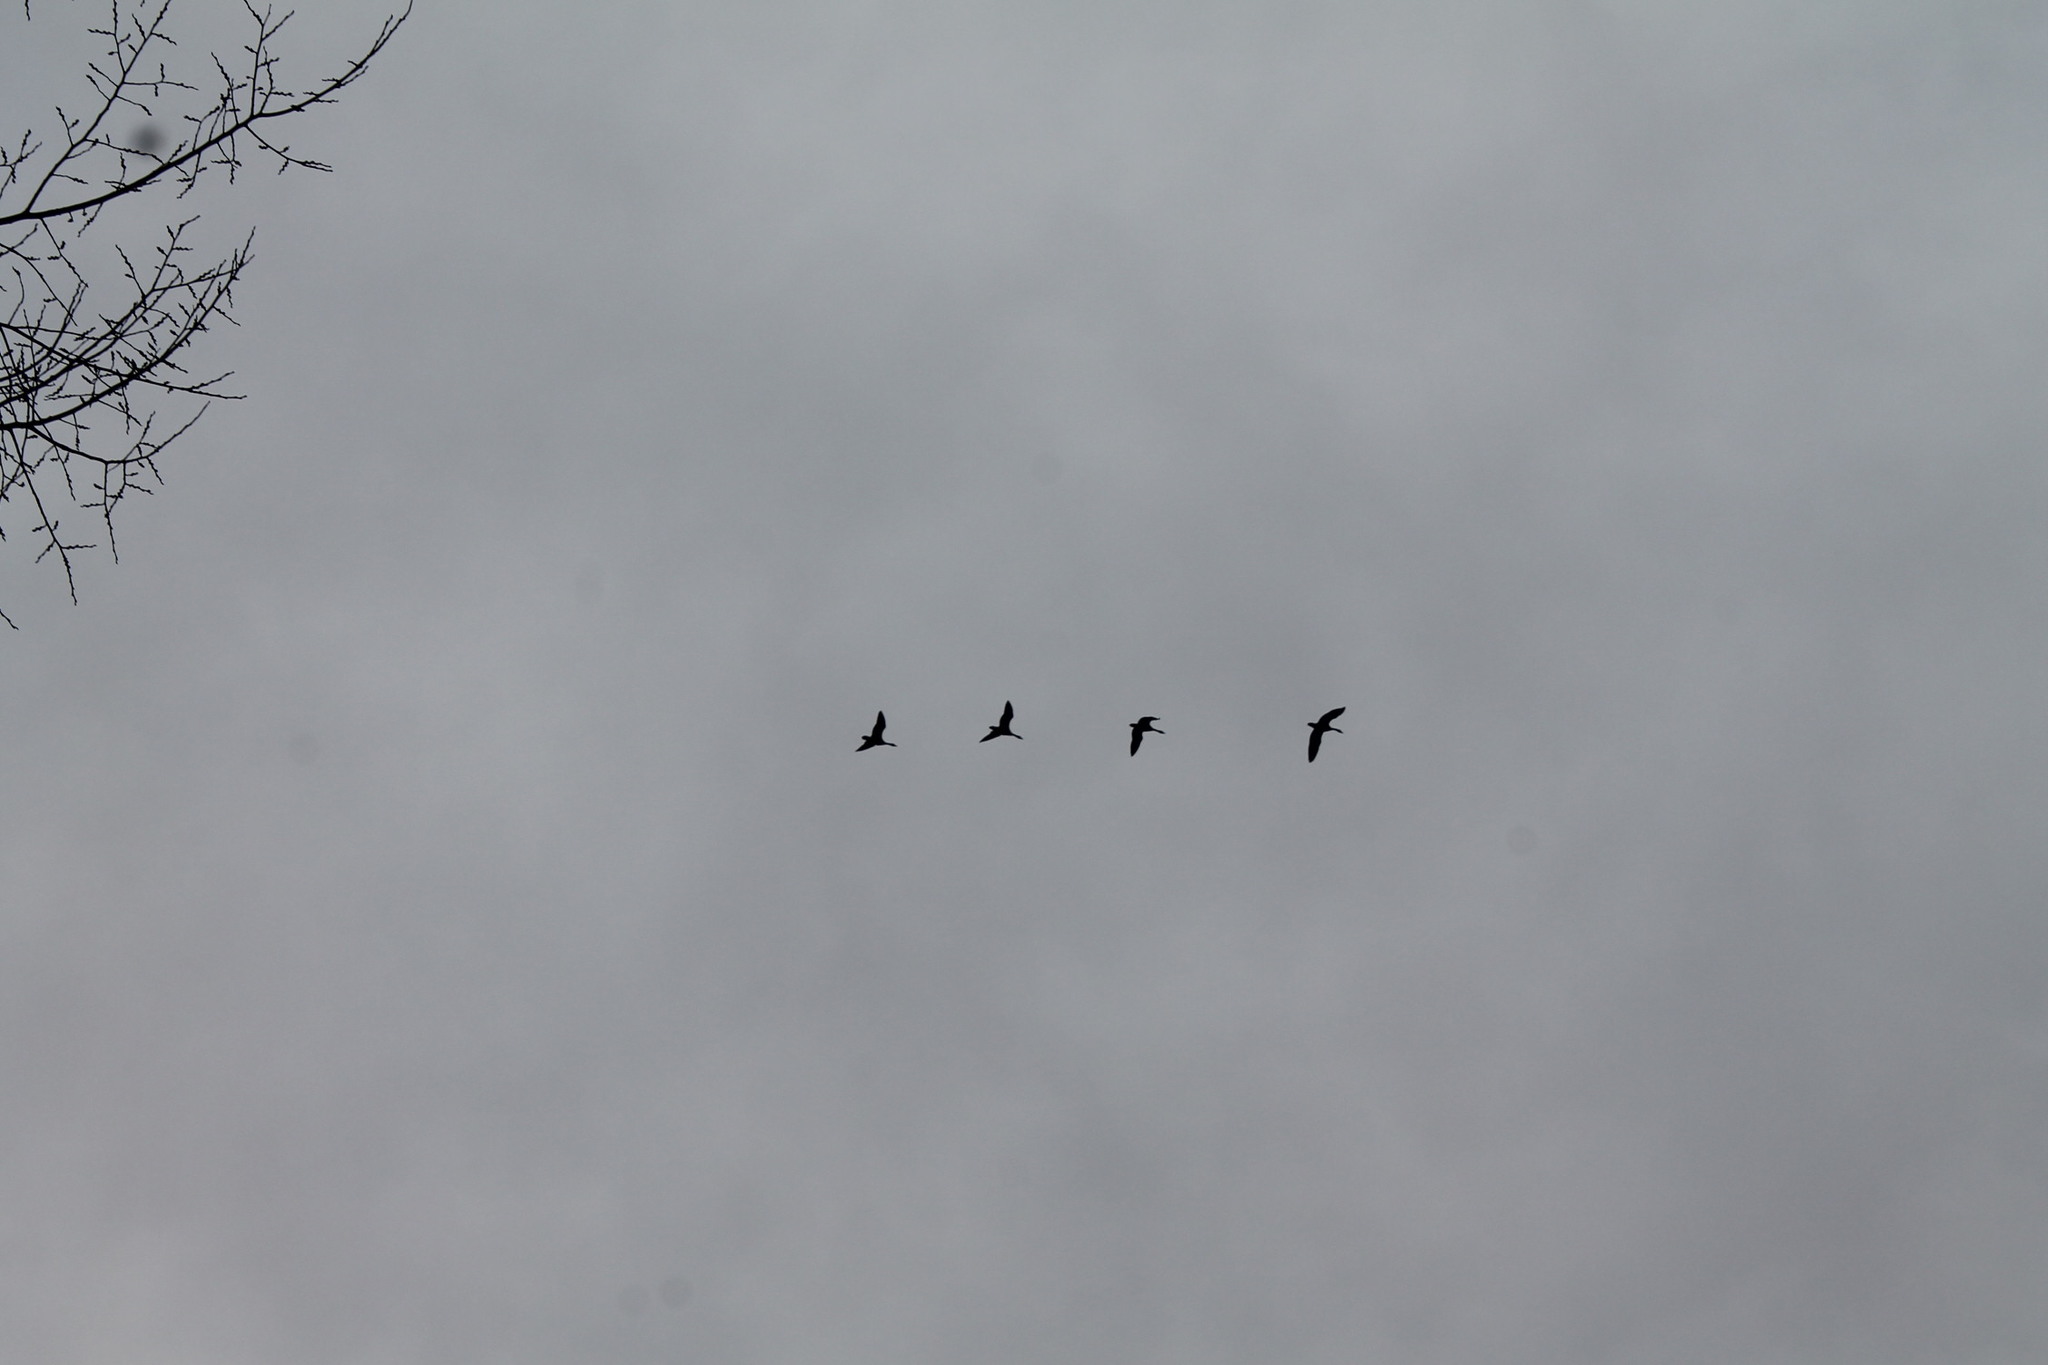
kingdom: Animalia
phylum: Chordata
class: Aves
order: Anseriformes
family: Anatidae
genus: Branta
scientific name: Branta canadensis
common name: Canada goose
